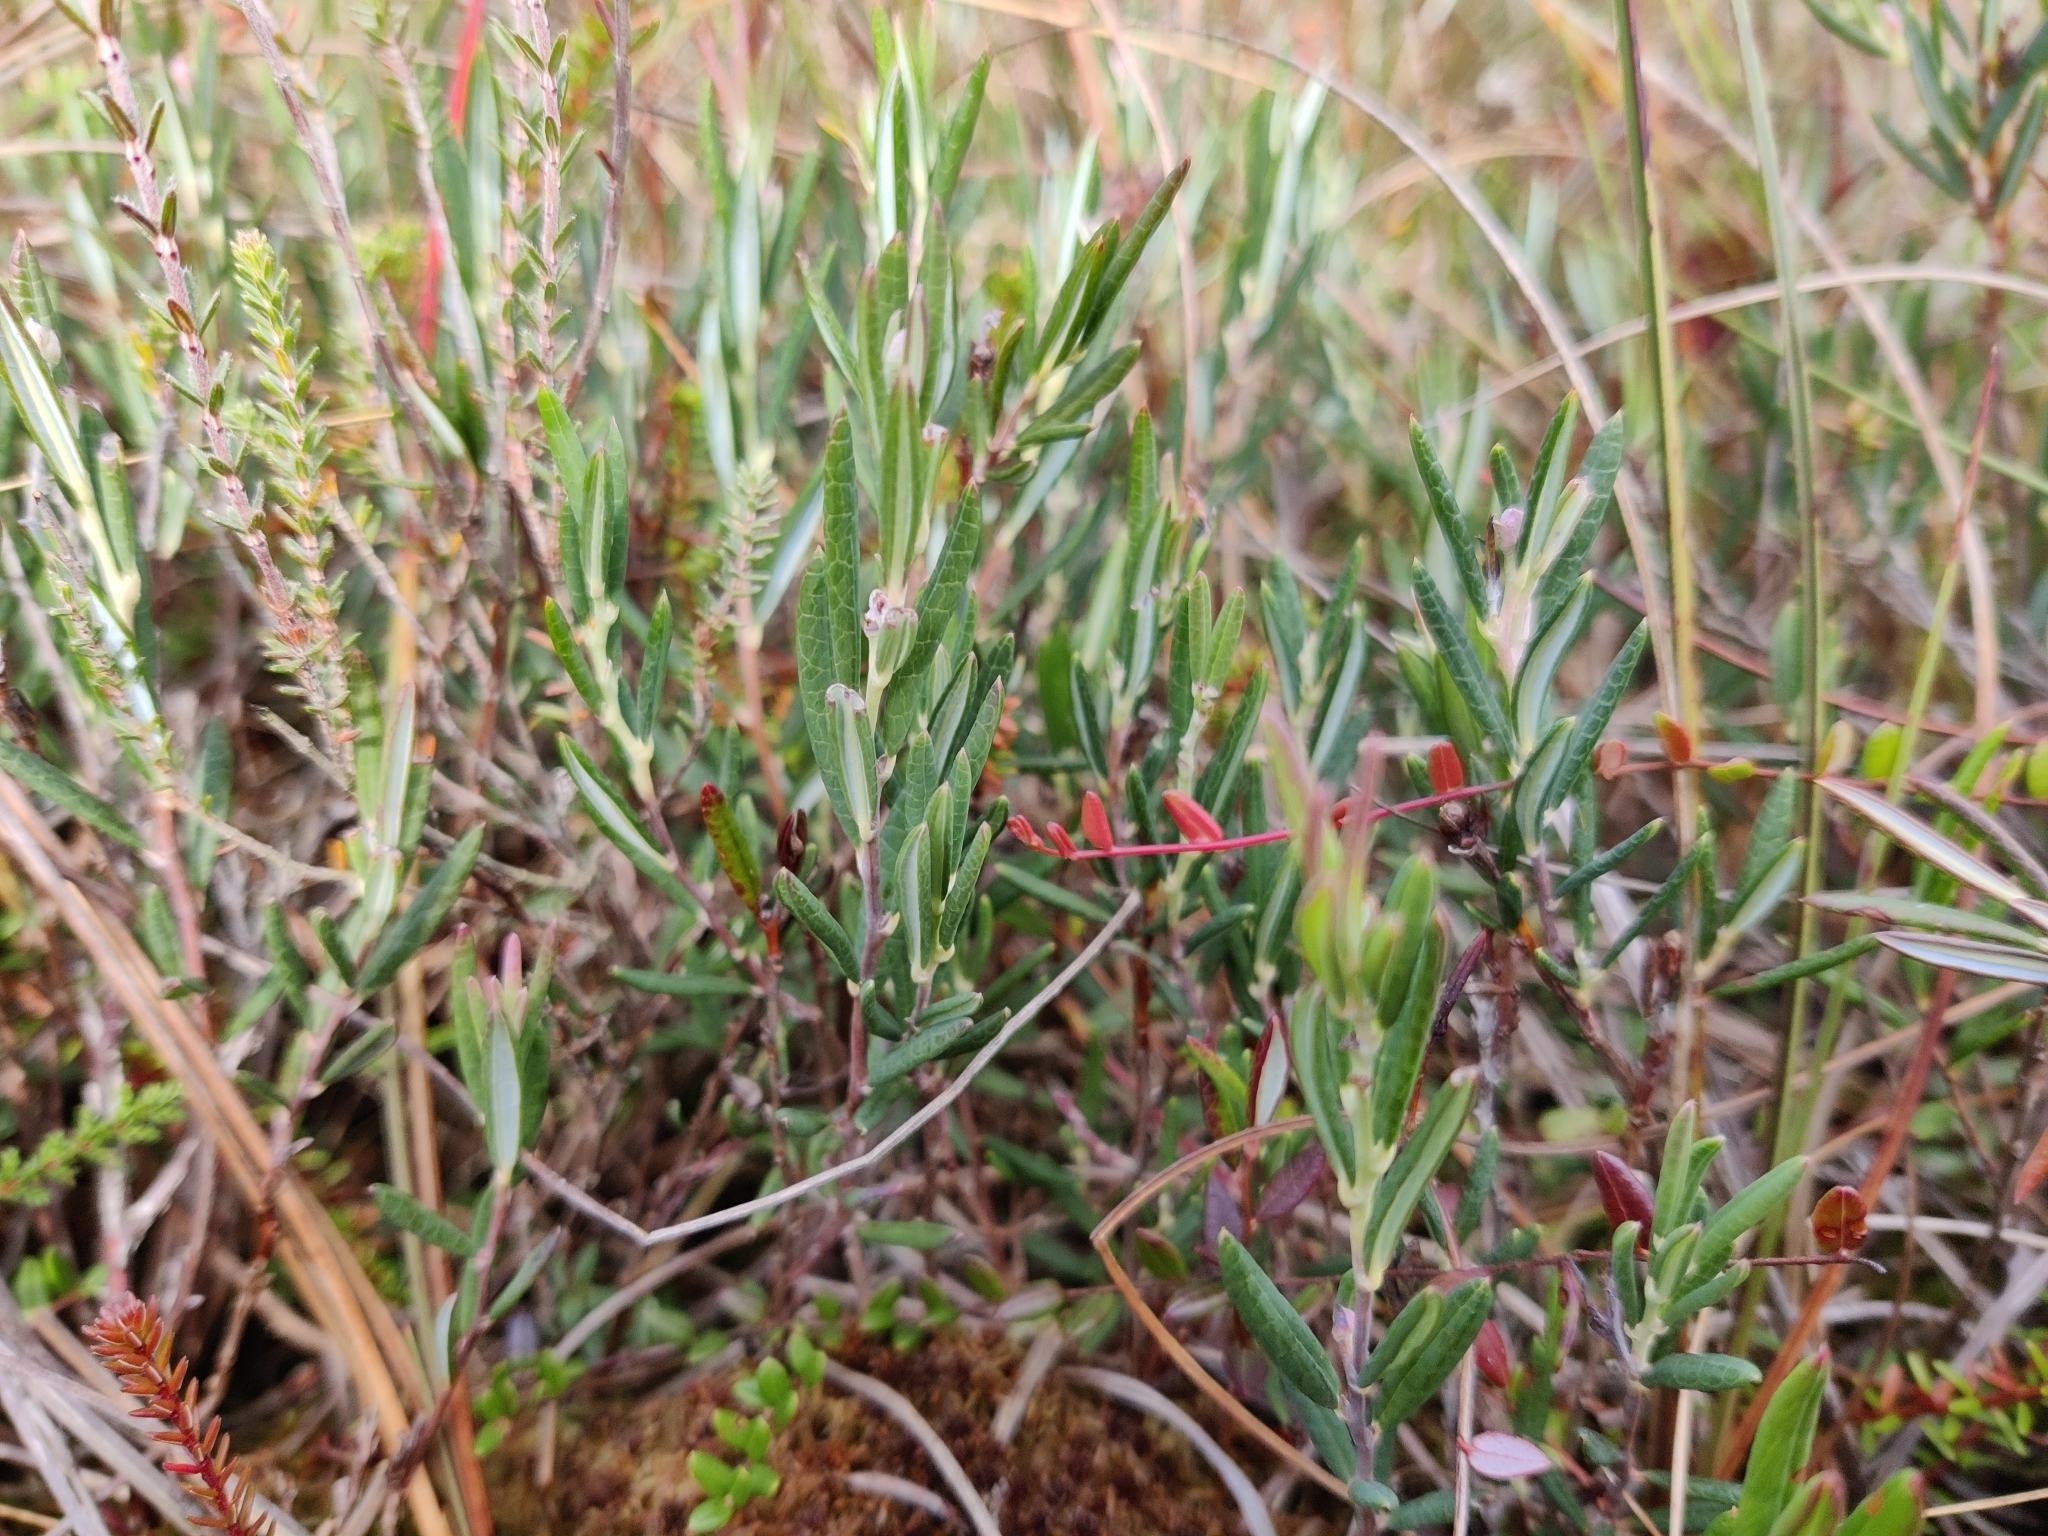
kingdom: Plantae
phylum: Tracheophyta
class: Magnoliopsida
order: Ericales
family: Ericaceae
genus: Andromeda
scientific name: Andromeda polifolia
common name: Bog-rosemary
